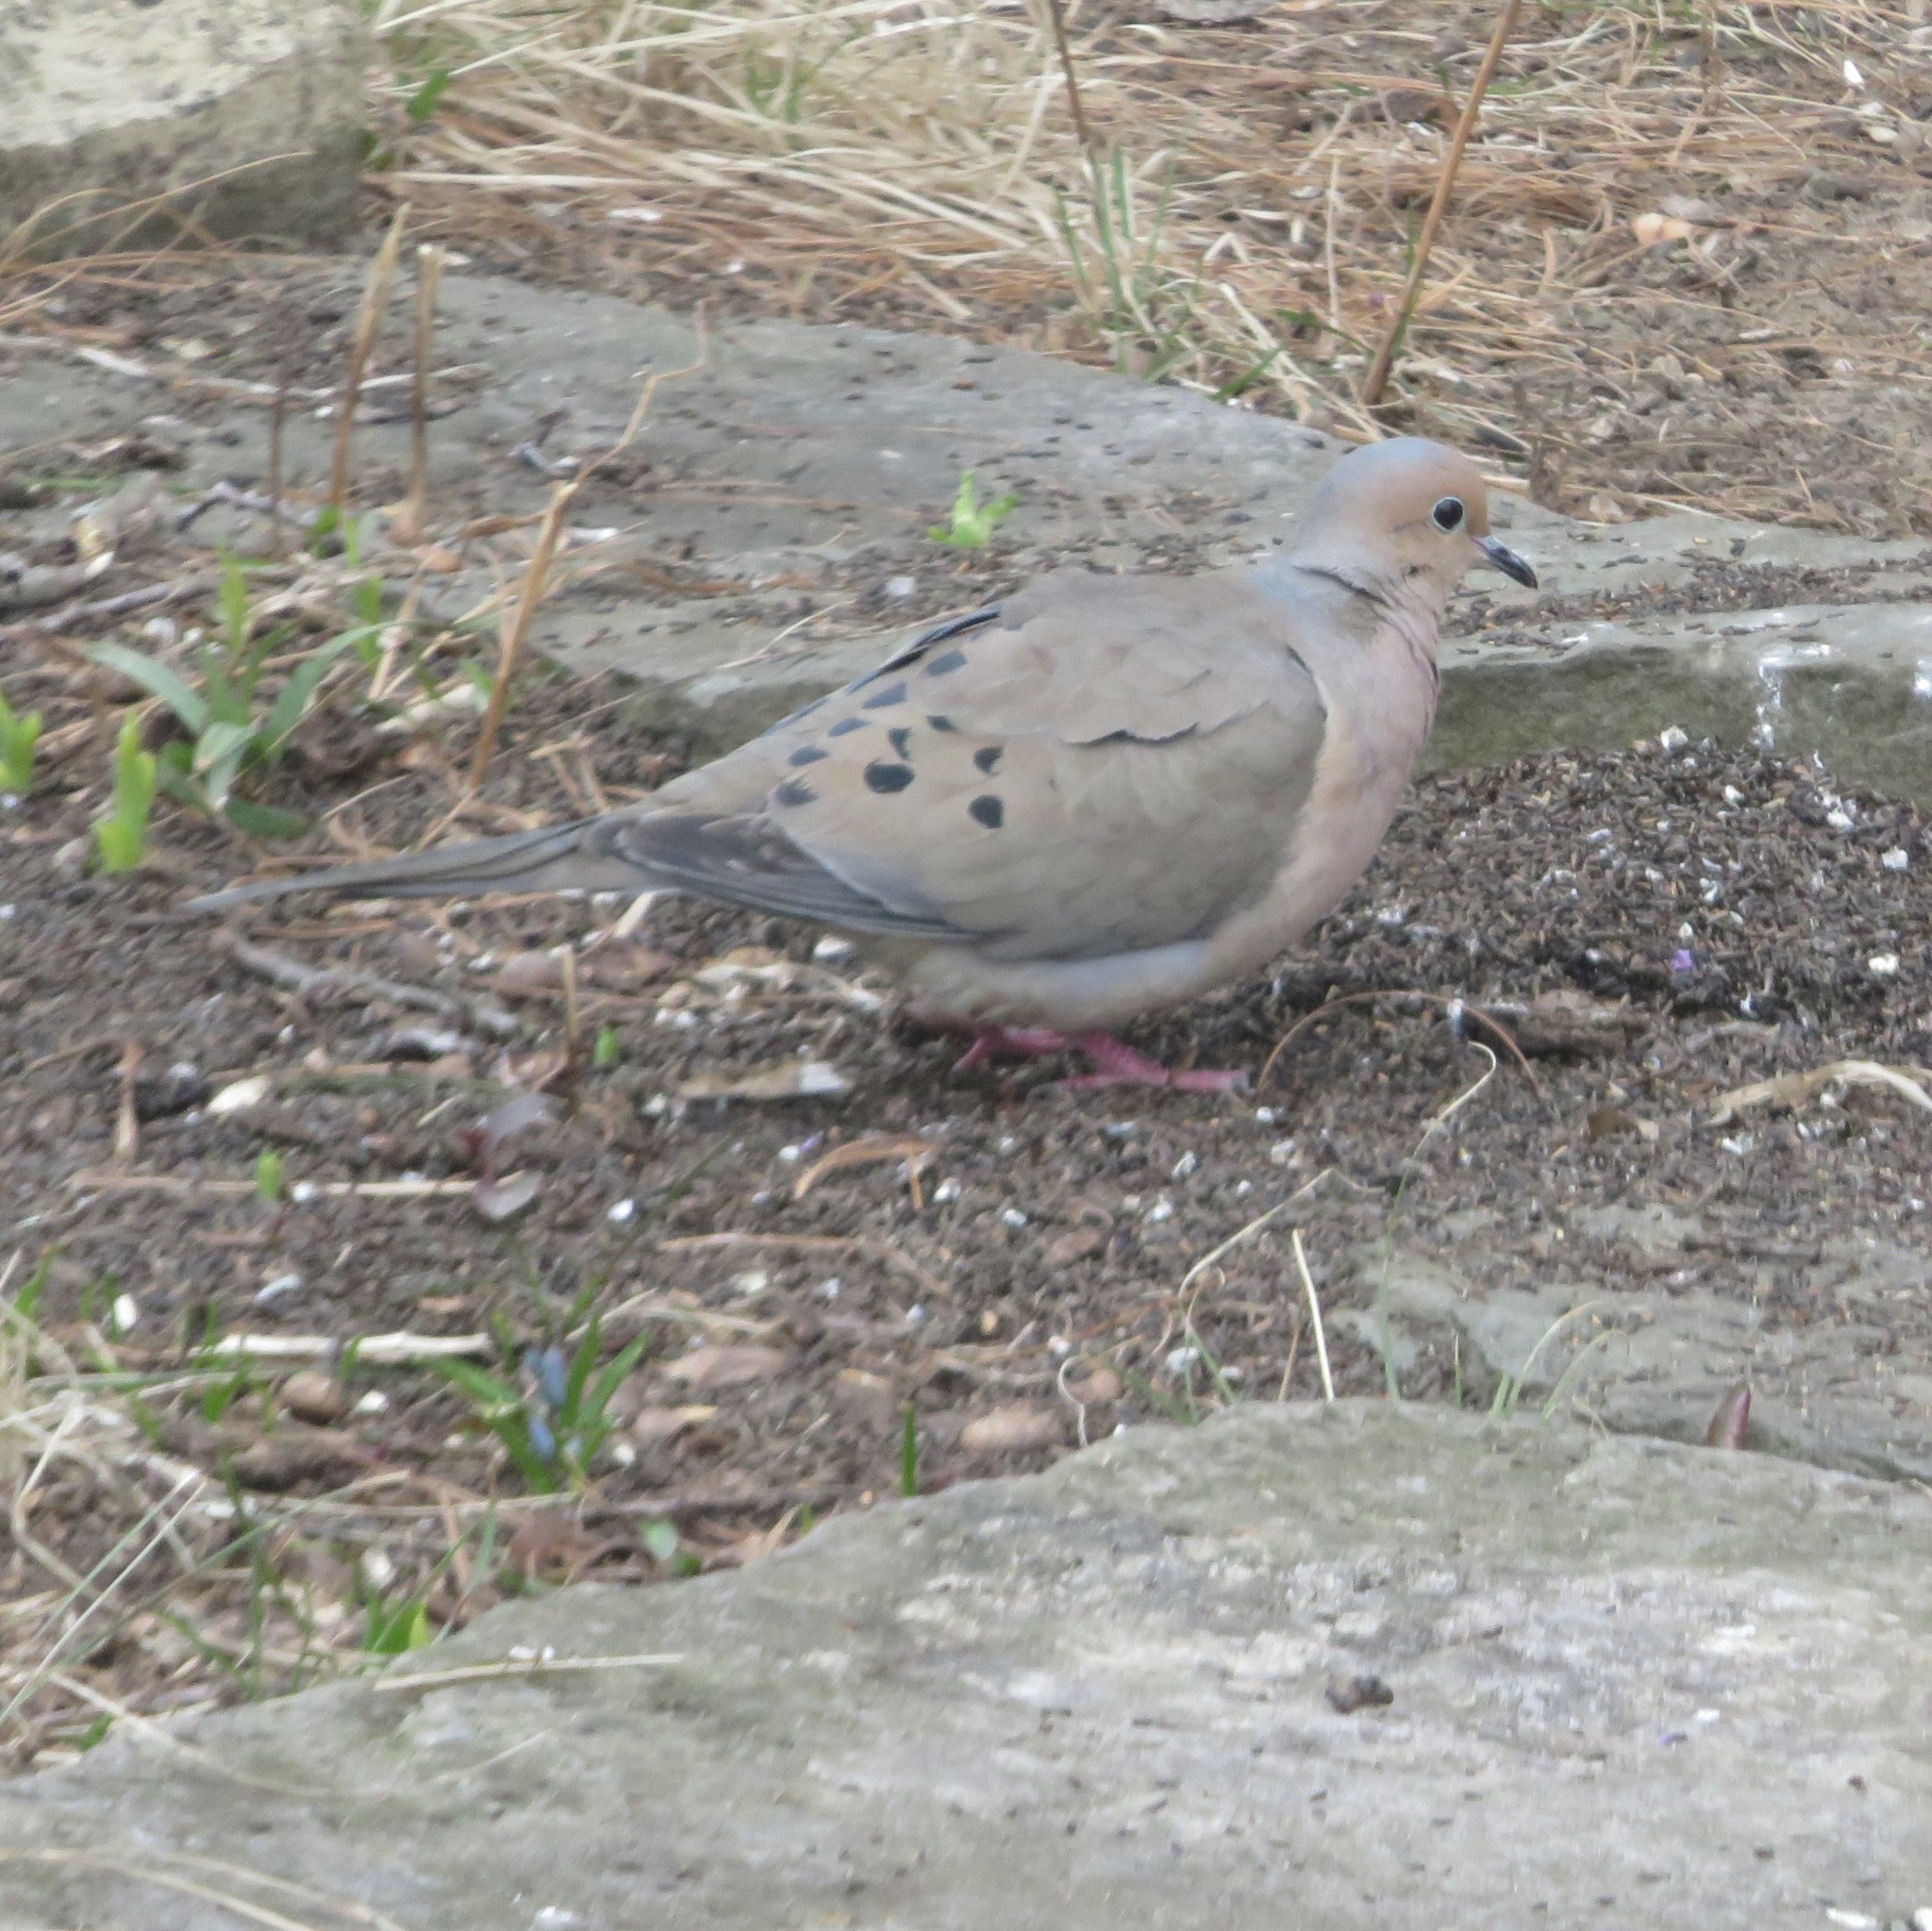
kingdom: Animalia
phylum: Chordata
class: Aves
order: Columbiformes
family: Columbidae
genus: Zenaida
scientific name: Zenaida macroura
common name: Mourning dove
